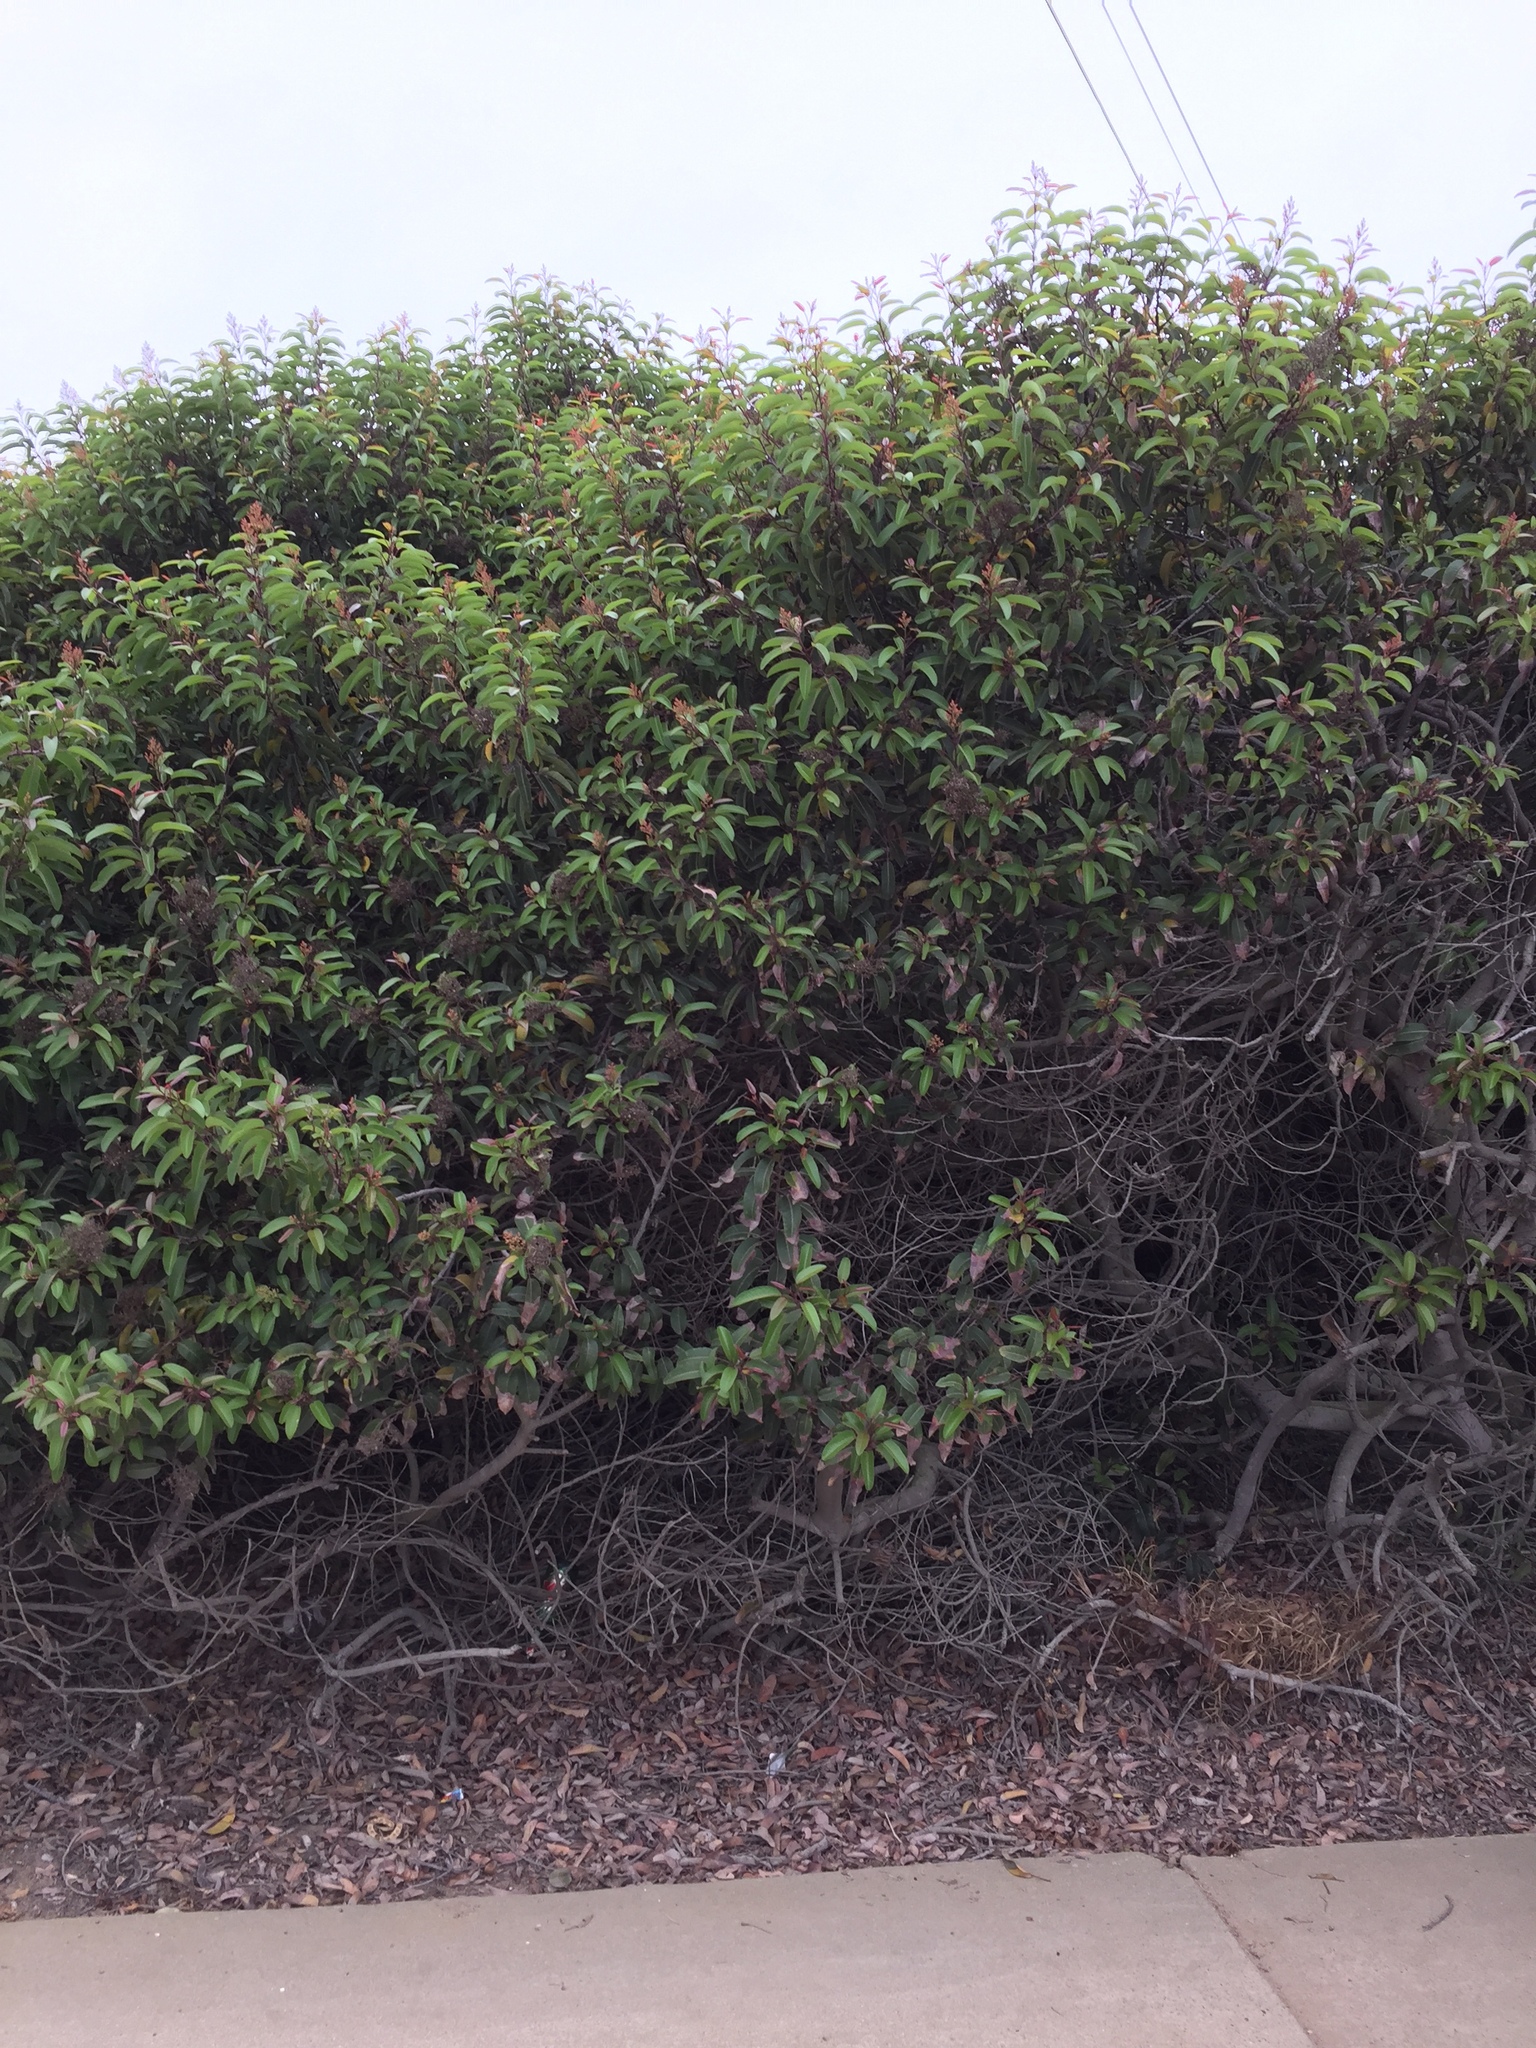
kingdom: Plantae
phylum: Tracheophyta
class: Magnoliopsida
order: Sapindales
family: Anacardiaceae
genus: Malosma
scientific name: Malosma laurina
